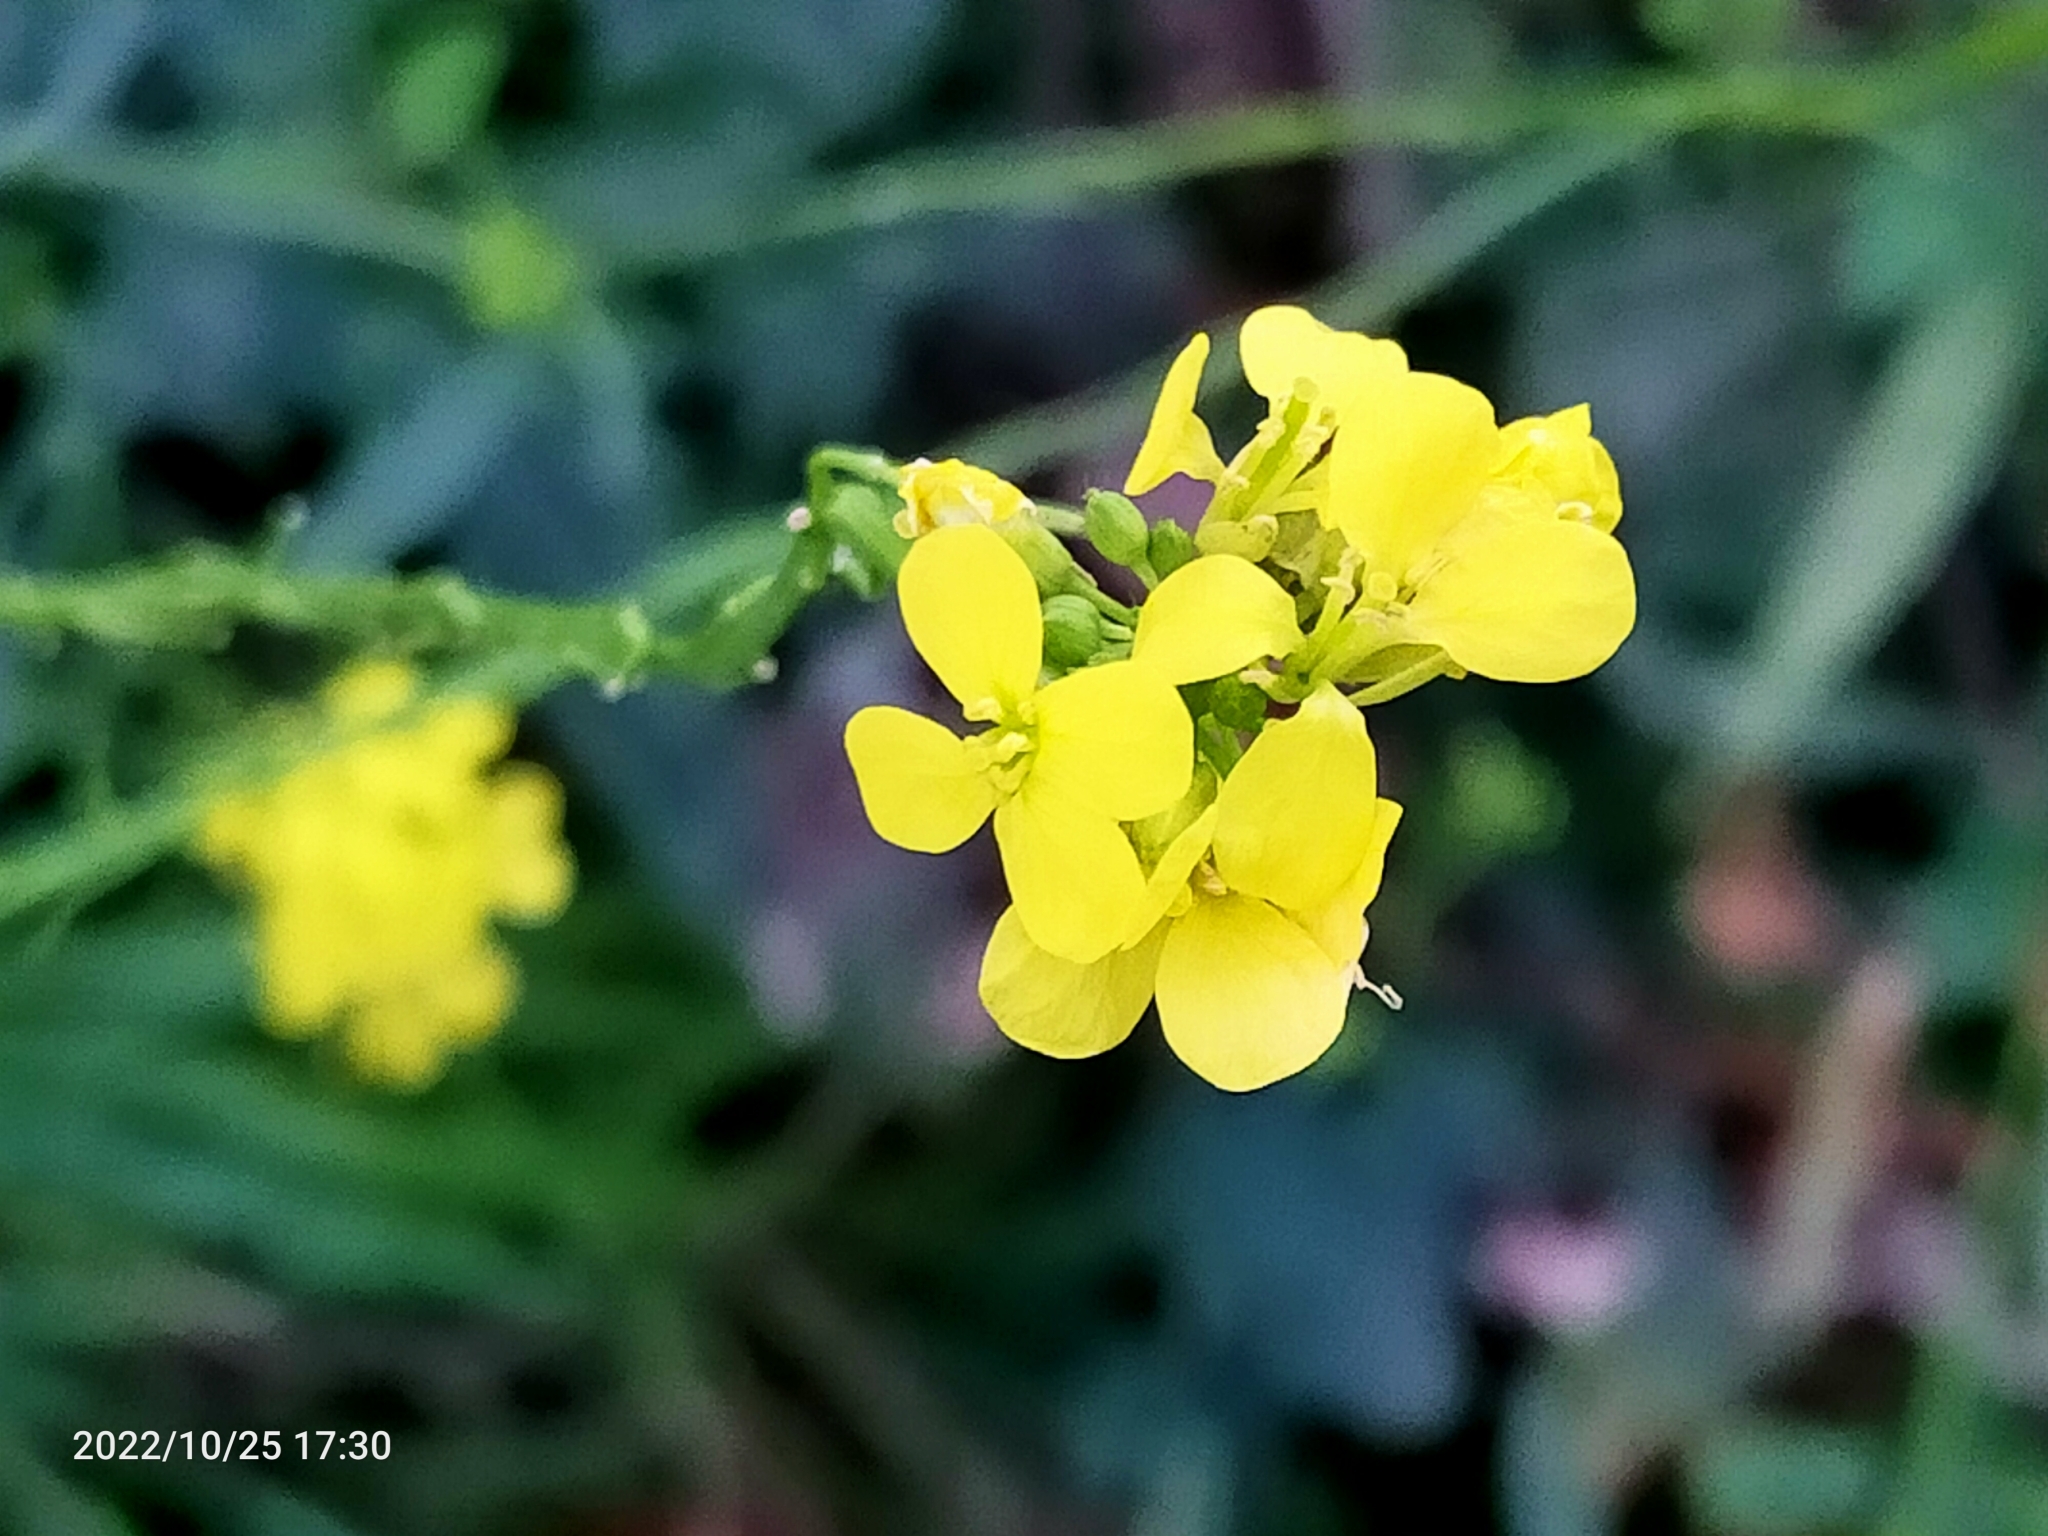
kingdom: Plantae
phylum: Tracheophyta
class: Magnoliopsida
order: Brassicales
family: Brassicaceae
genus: Hirschfeldia
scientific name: Hirschfeldia incana
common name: Hoary mustard
